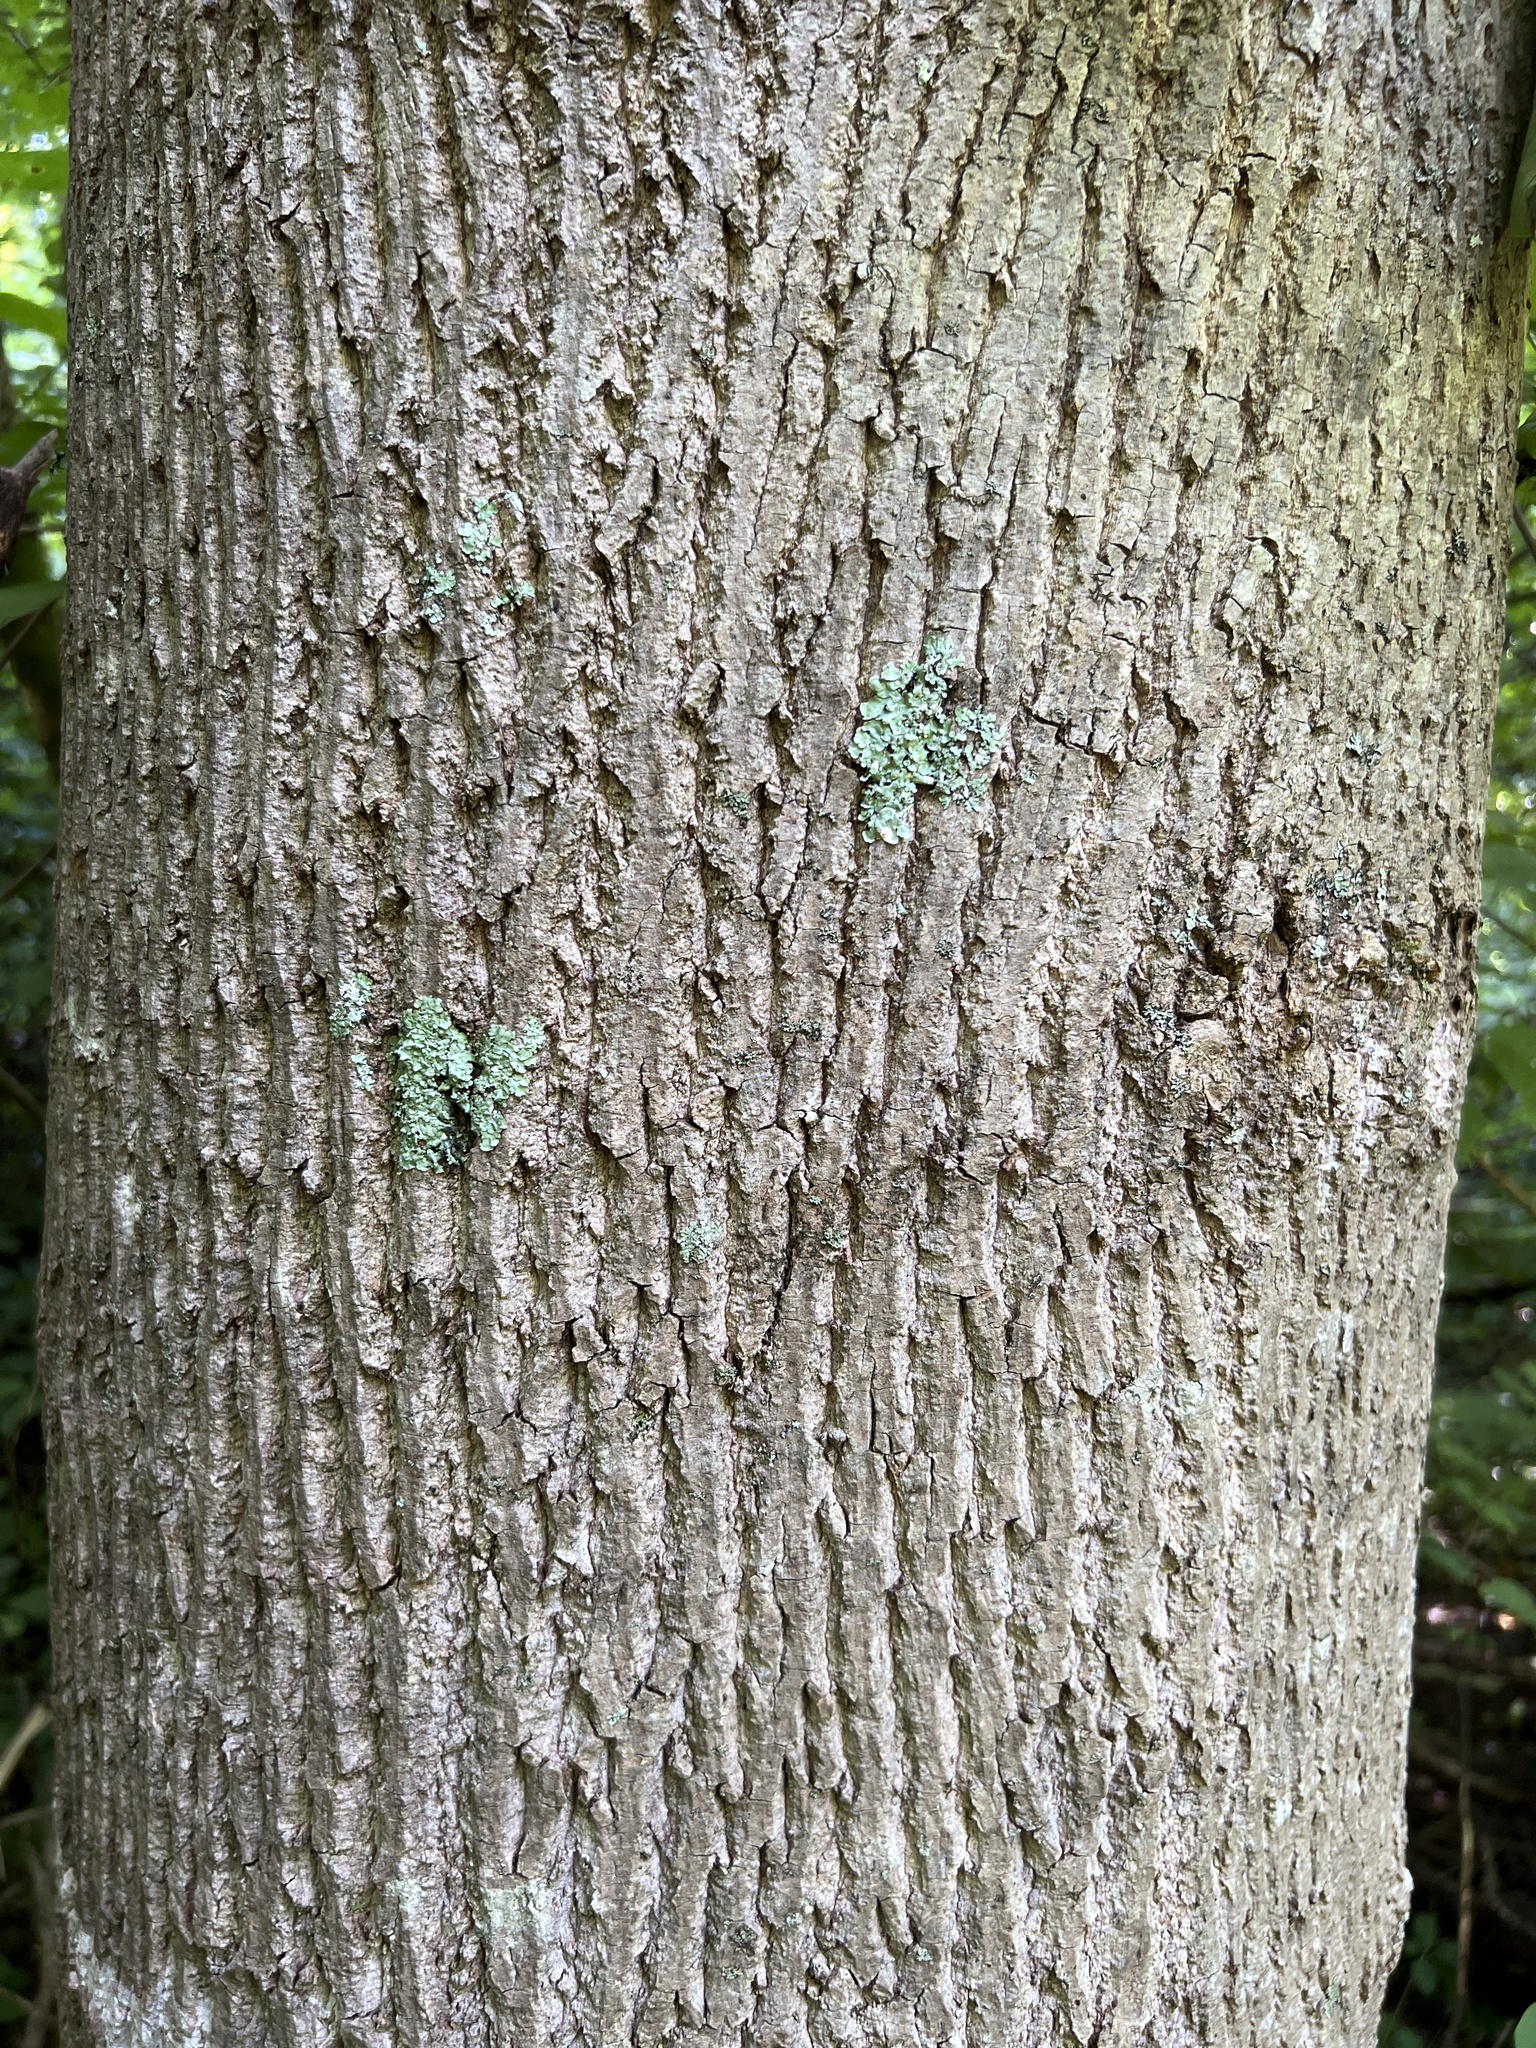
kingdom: Plantae
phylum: Tracheophyta
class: Magnoliopsida
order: Magnoliales
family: Magnoliaceae
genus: Liriodendron
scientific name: Liriodendron tulipifera
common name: Tulip tree
